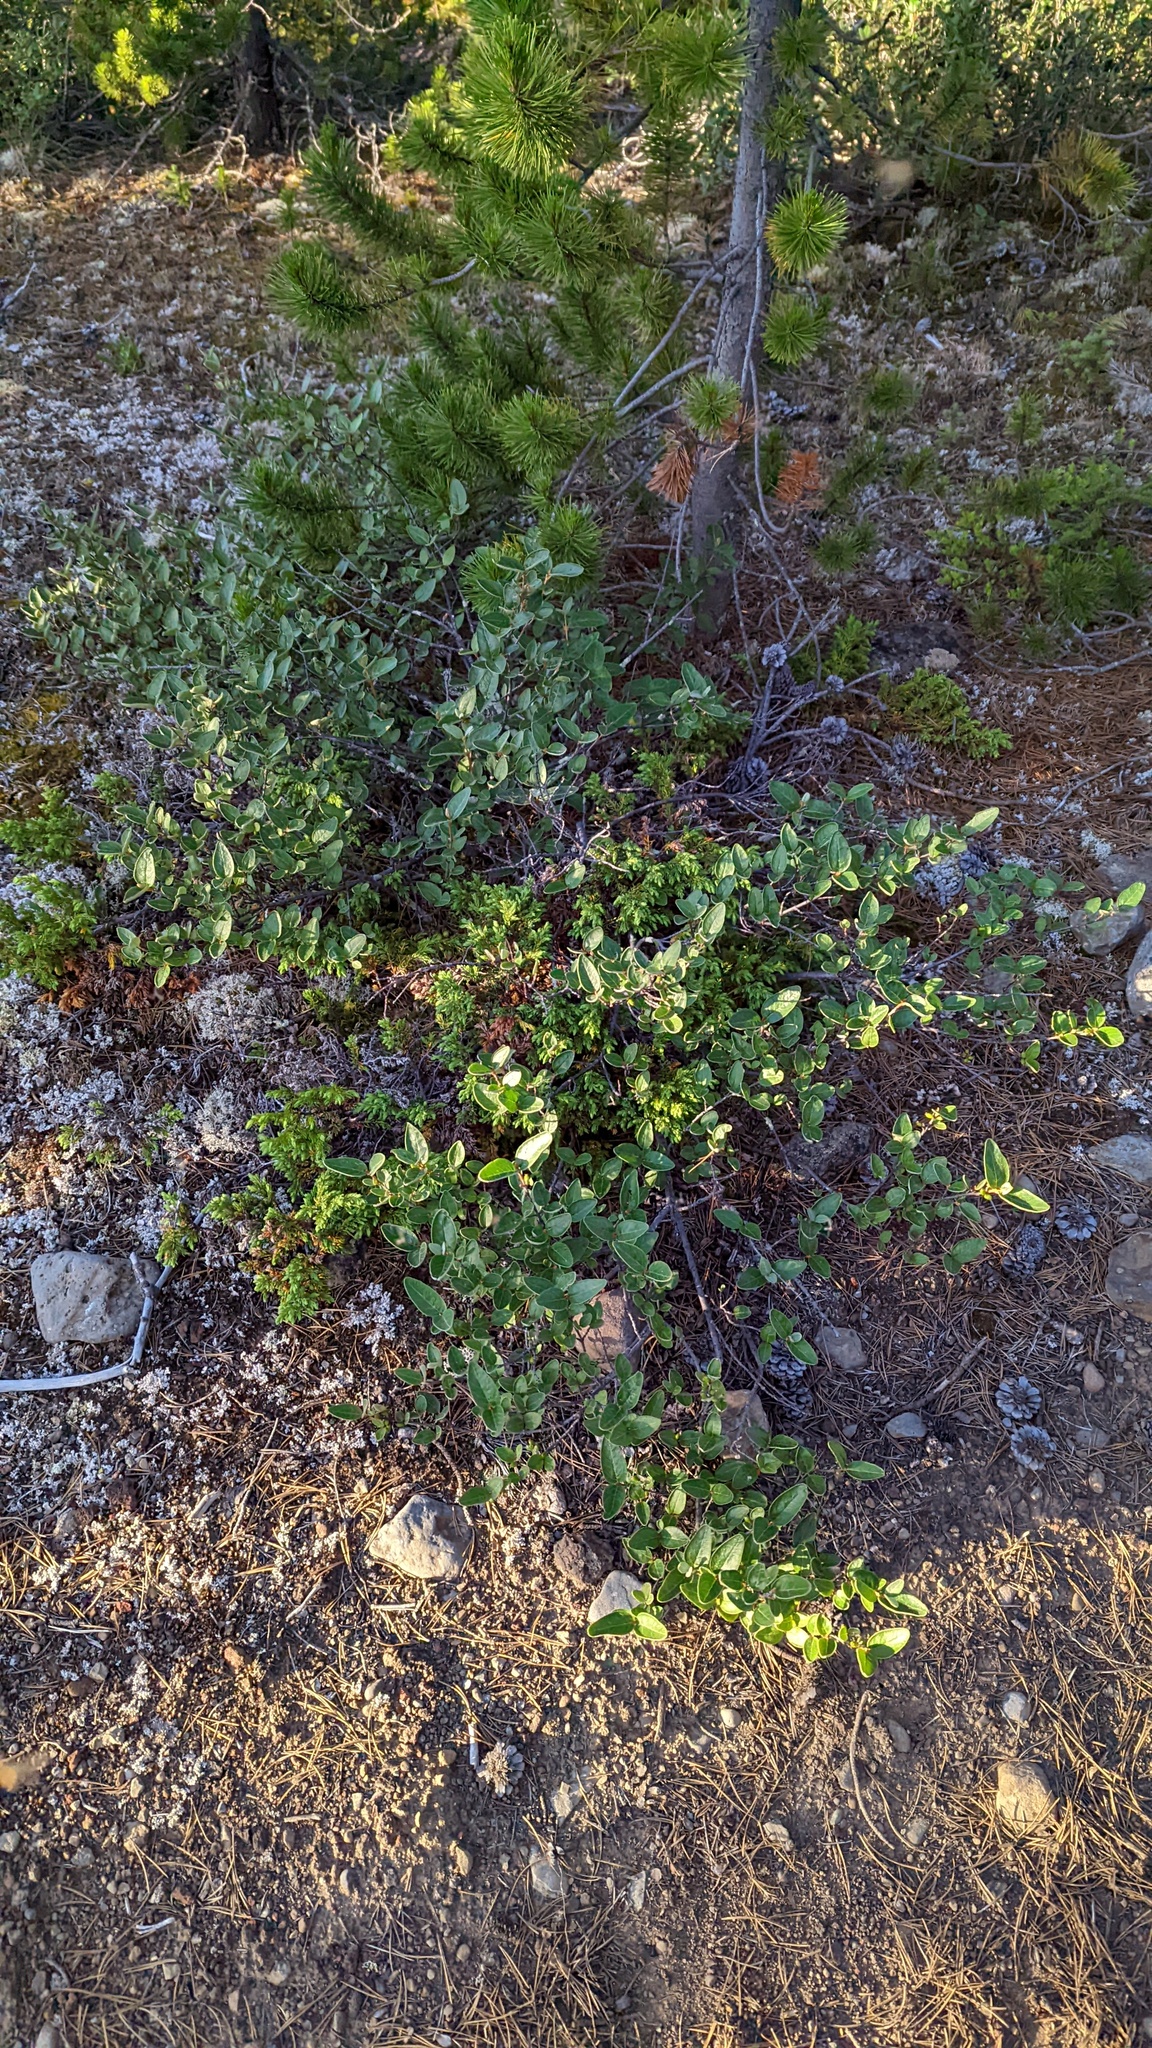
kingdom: Plantae
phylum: Tracheophyta
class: Magnoliopsida
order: Rosales
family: Elaeagnaceae
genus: Shepherdia
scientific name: Shepherdia canadensis
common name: Soapberry
